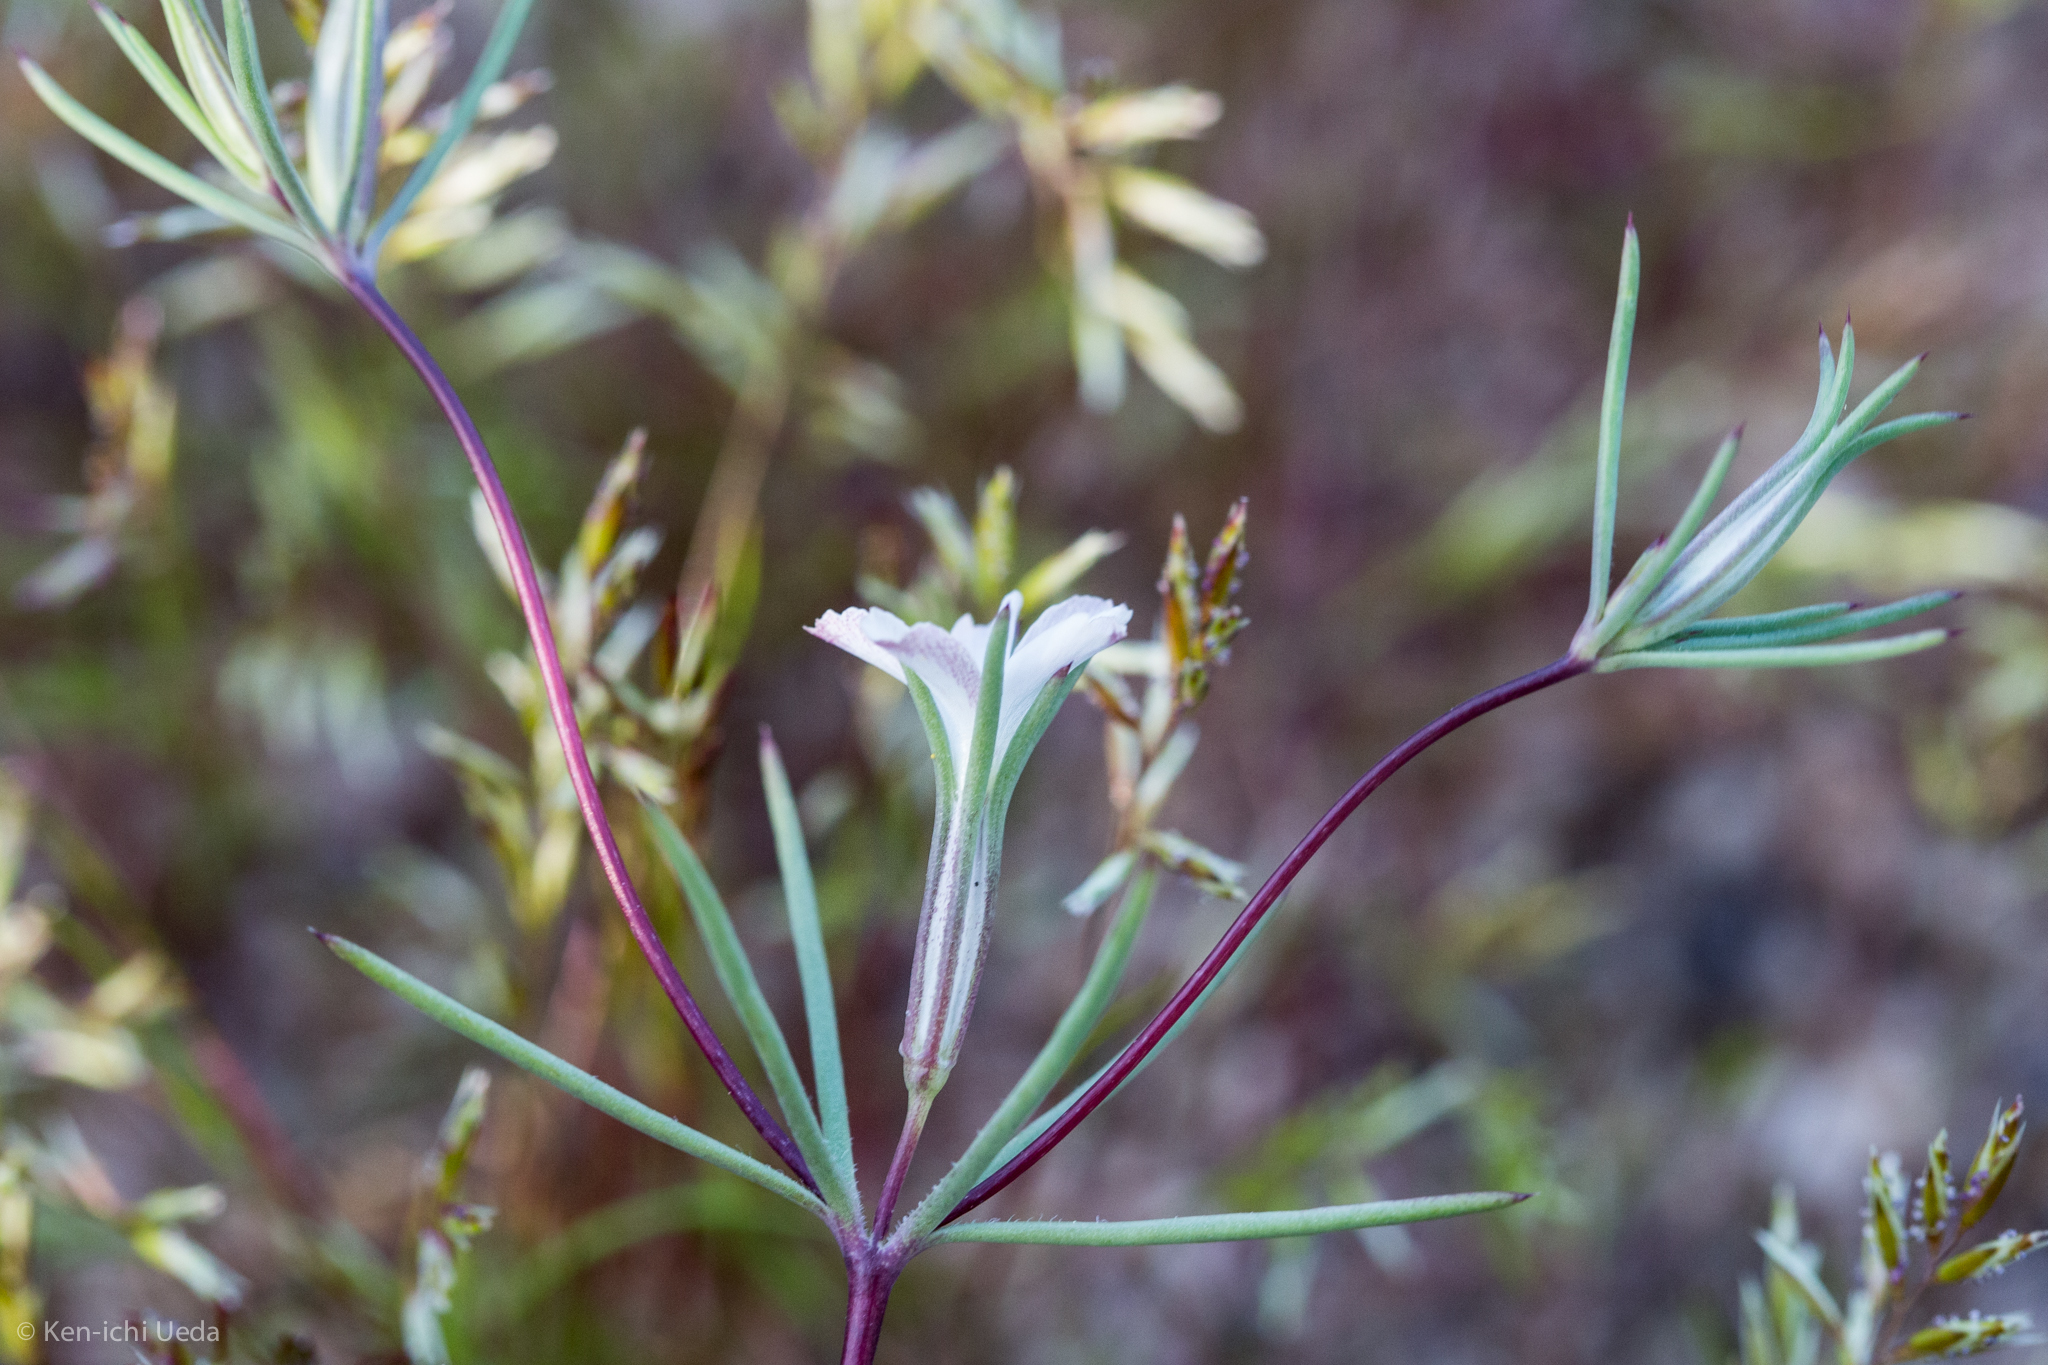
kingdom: Plantae
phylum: Tracheophyta
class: Magnoliopsida
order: Ericales
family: Polemoniaceae
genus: Linanthus
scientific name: Linanthus bigelovii
